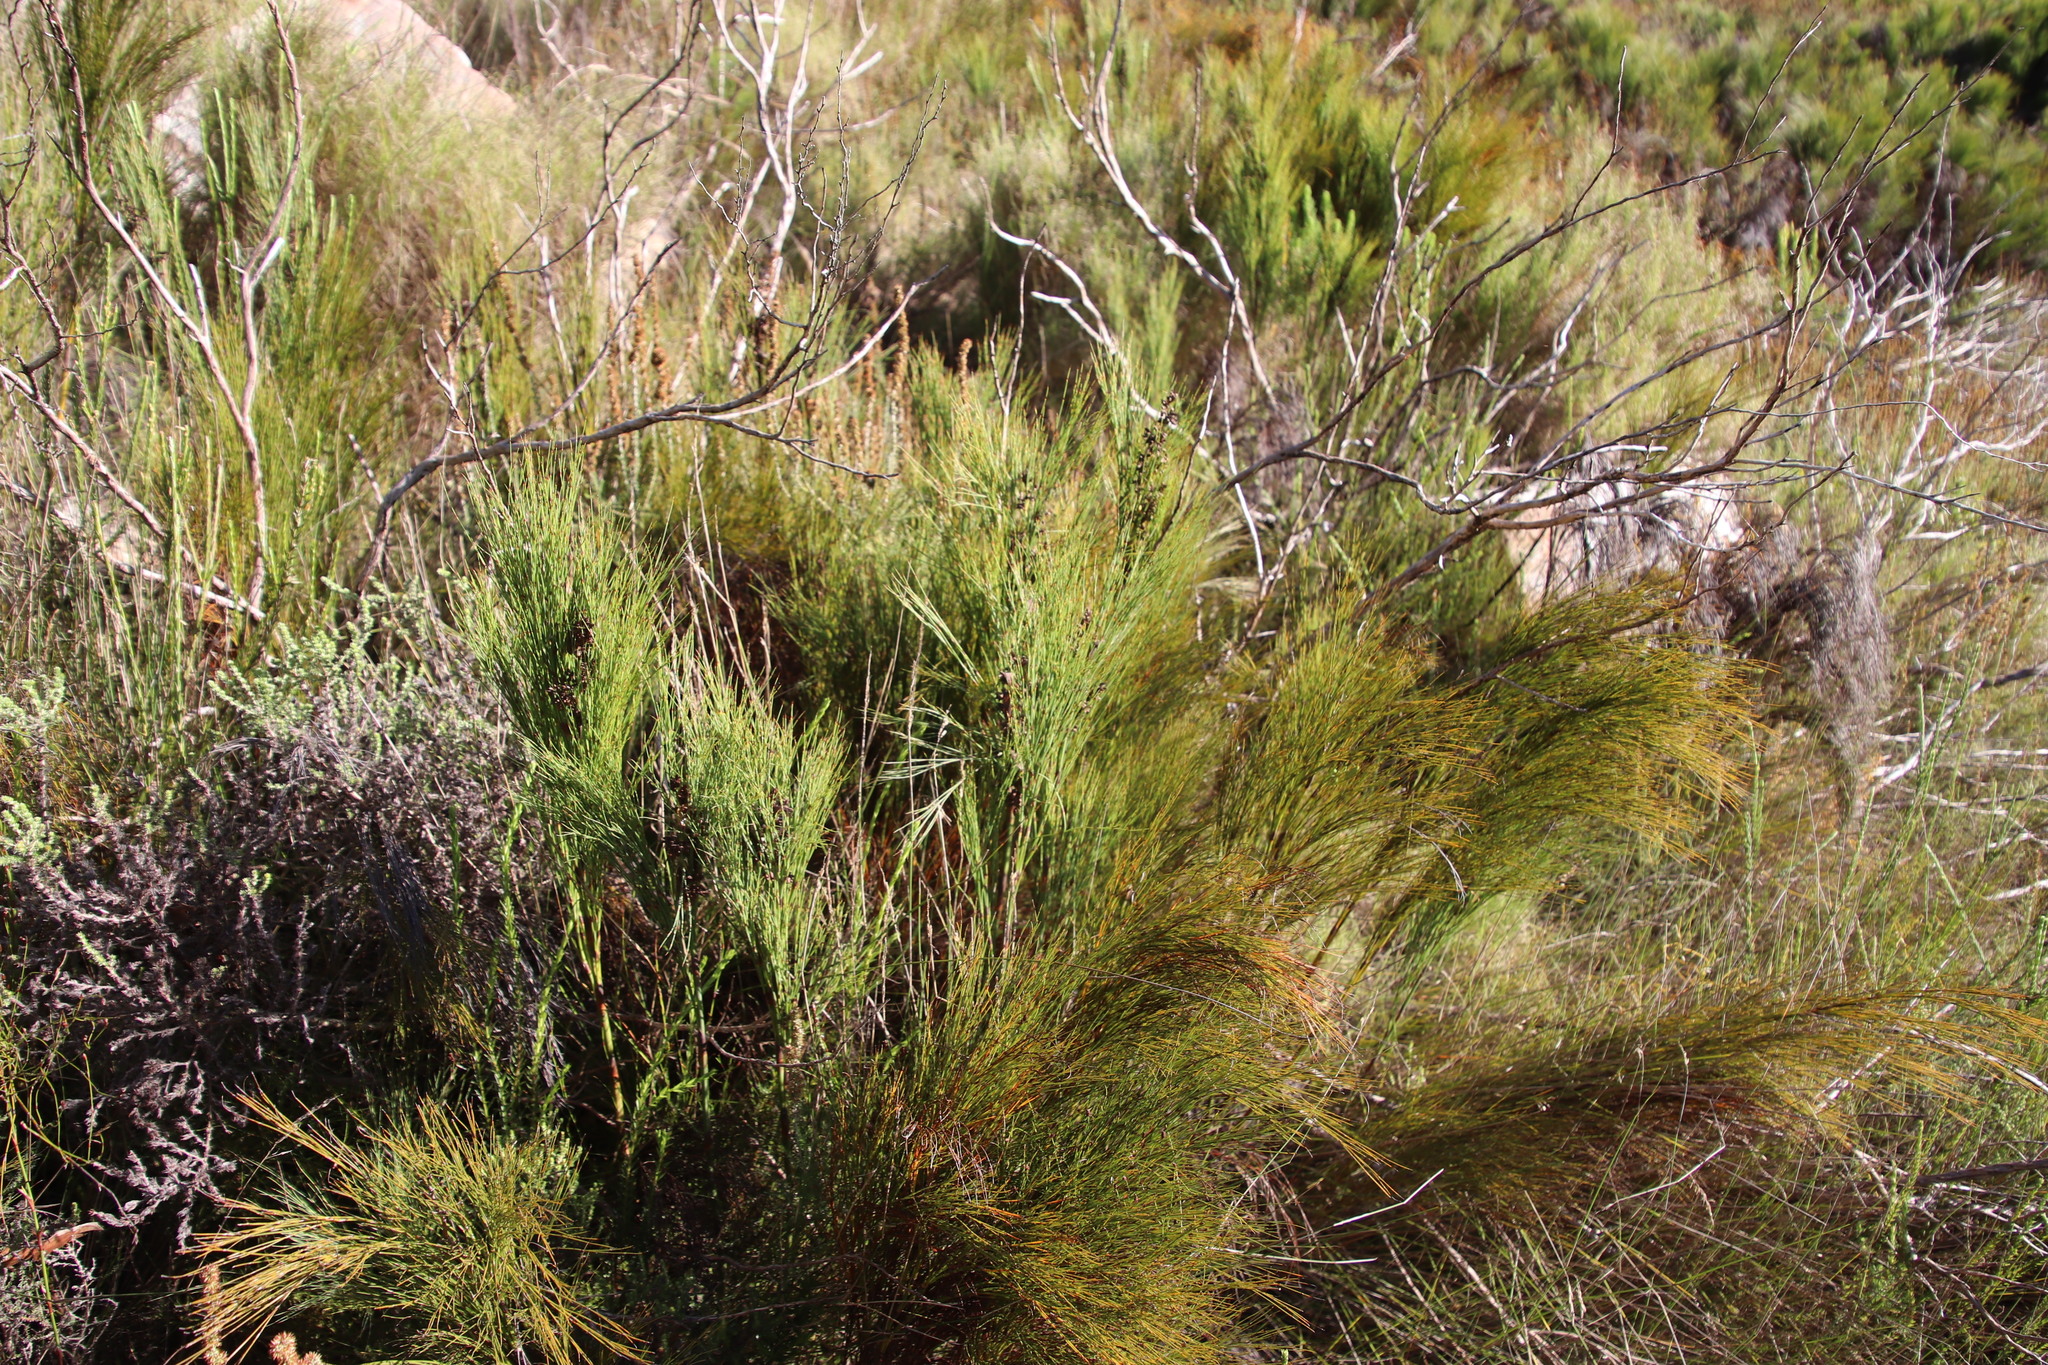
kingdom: Plantae
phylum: Tracheophyta
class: Liliopsida
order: Poales
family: Restionaceae
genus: Cannomois
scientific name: Cannomois virgata
